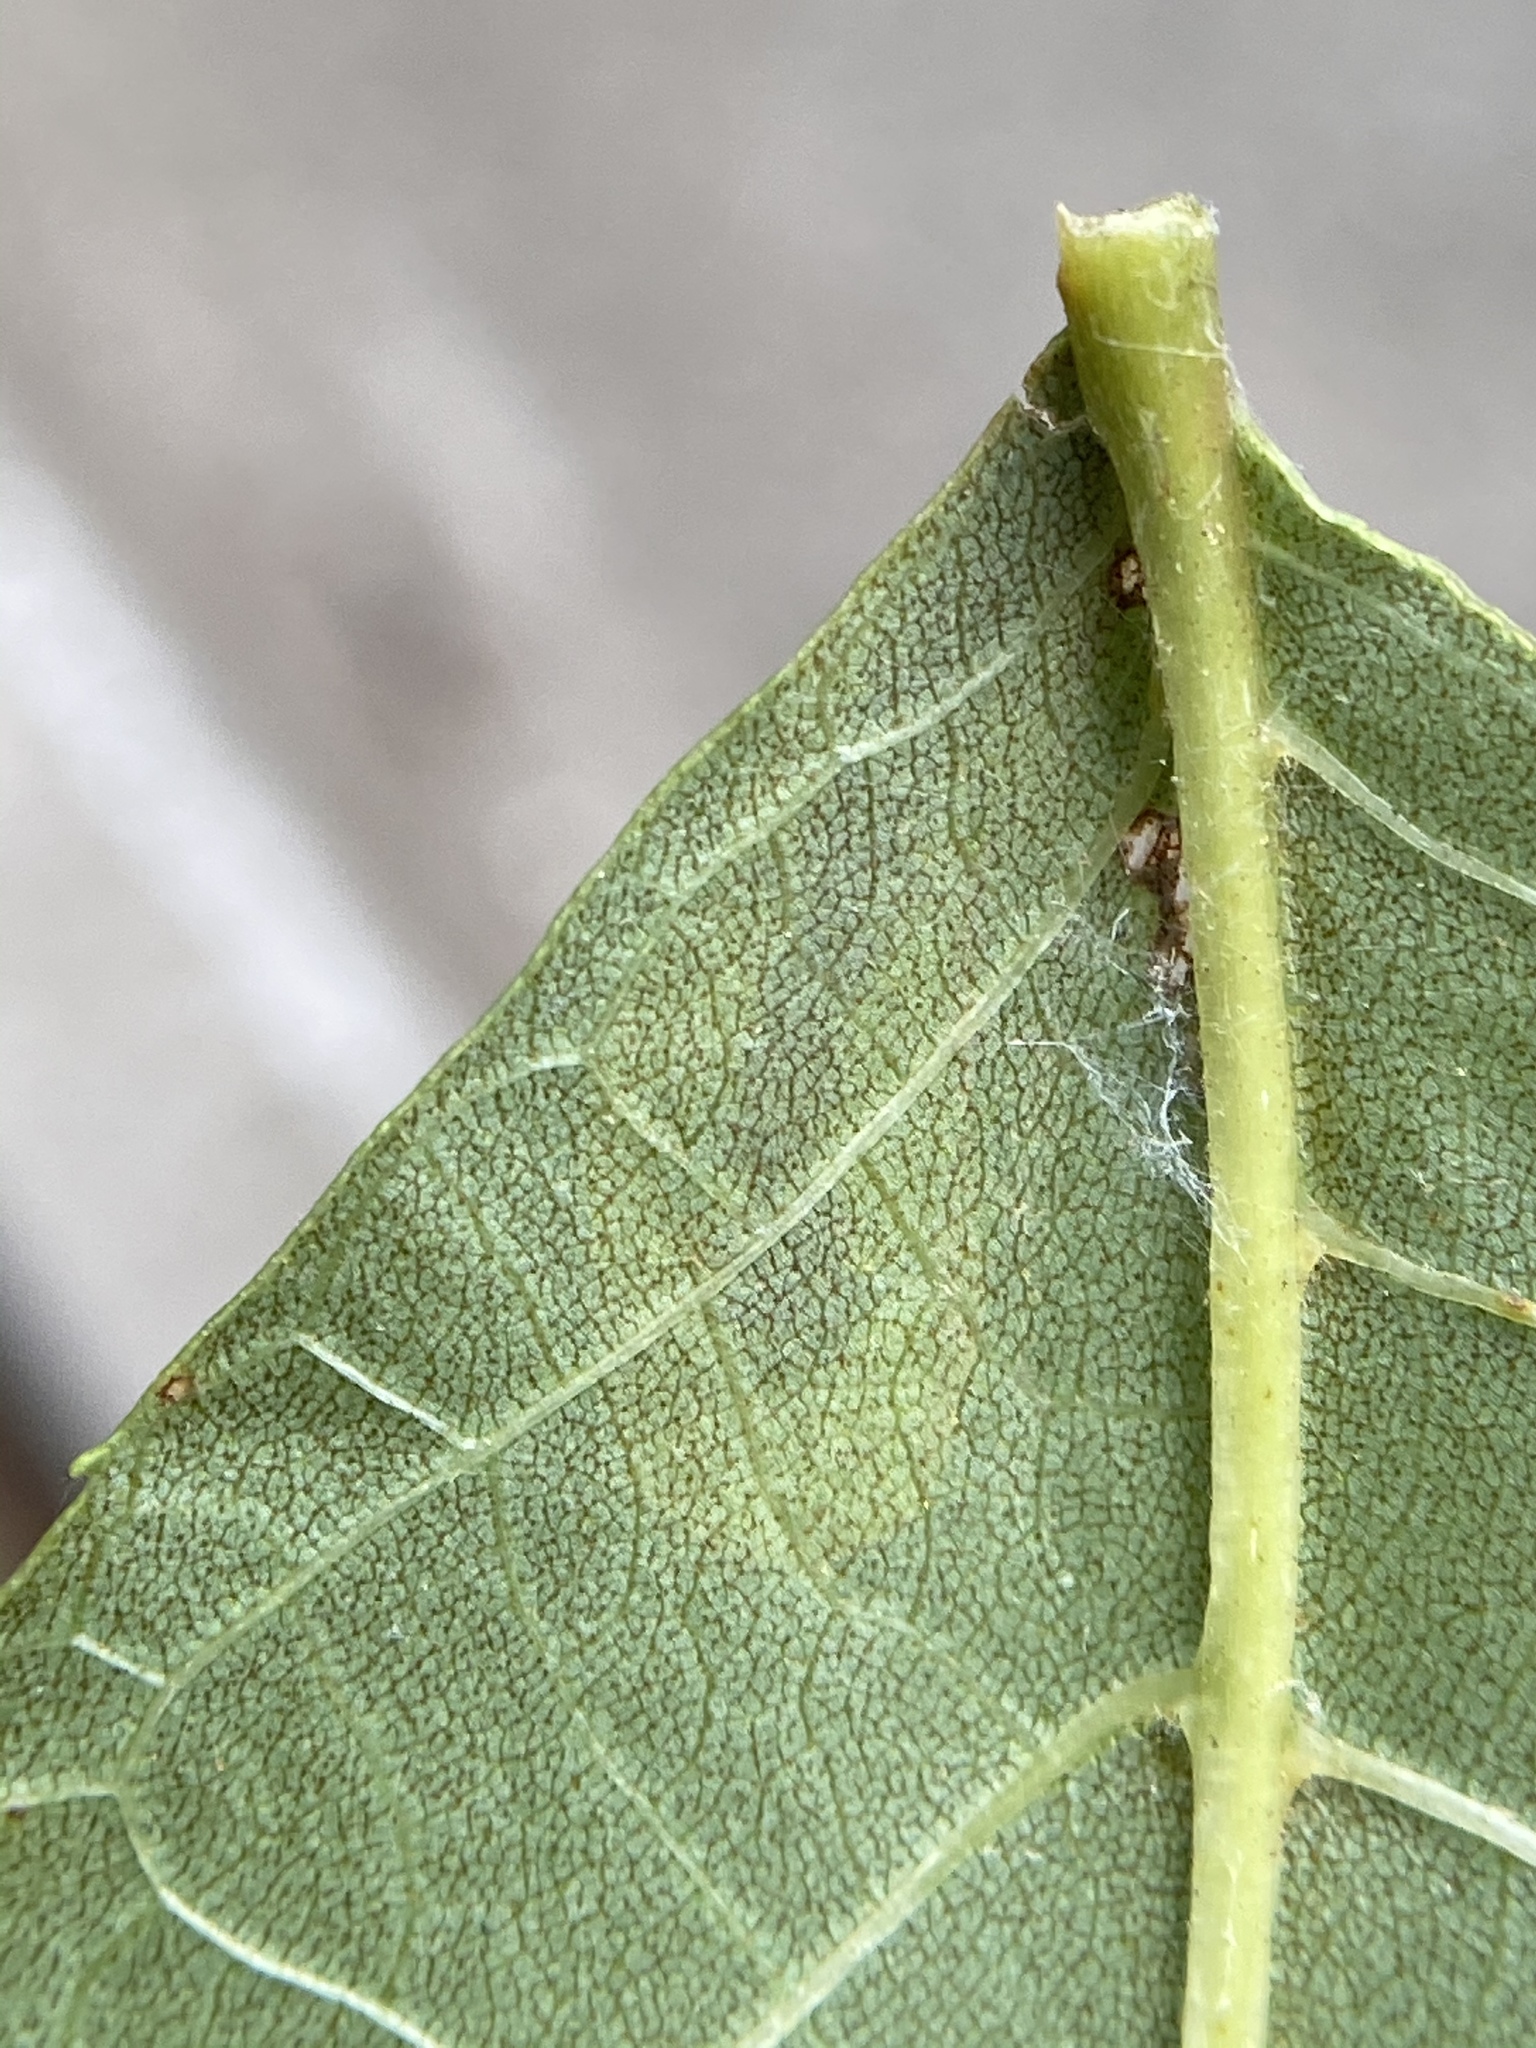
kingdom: Animalia
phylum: Arthropoda
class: Insecta
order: Lepidoptera
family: Gracillariidae
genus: Cameraria
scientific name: Cameraria caryaefoliella
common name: Pecan leafminer moth
